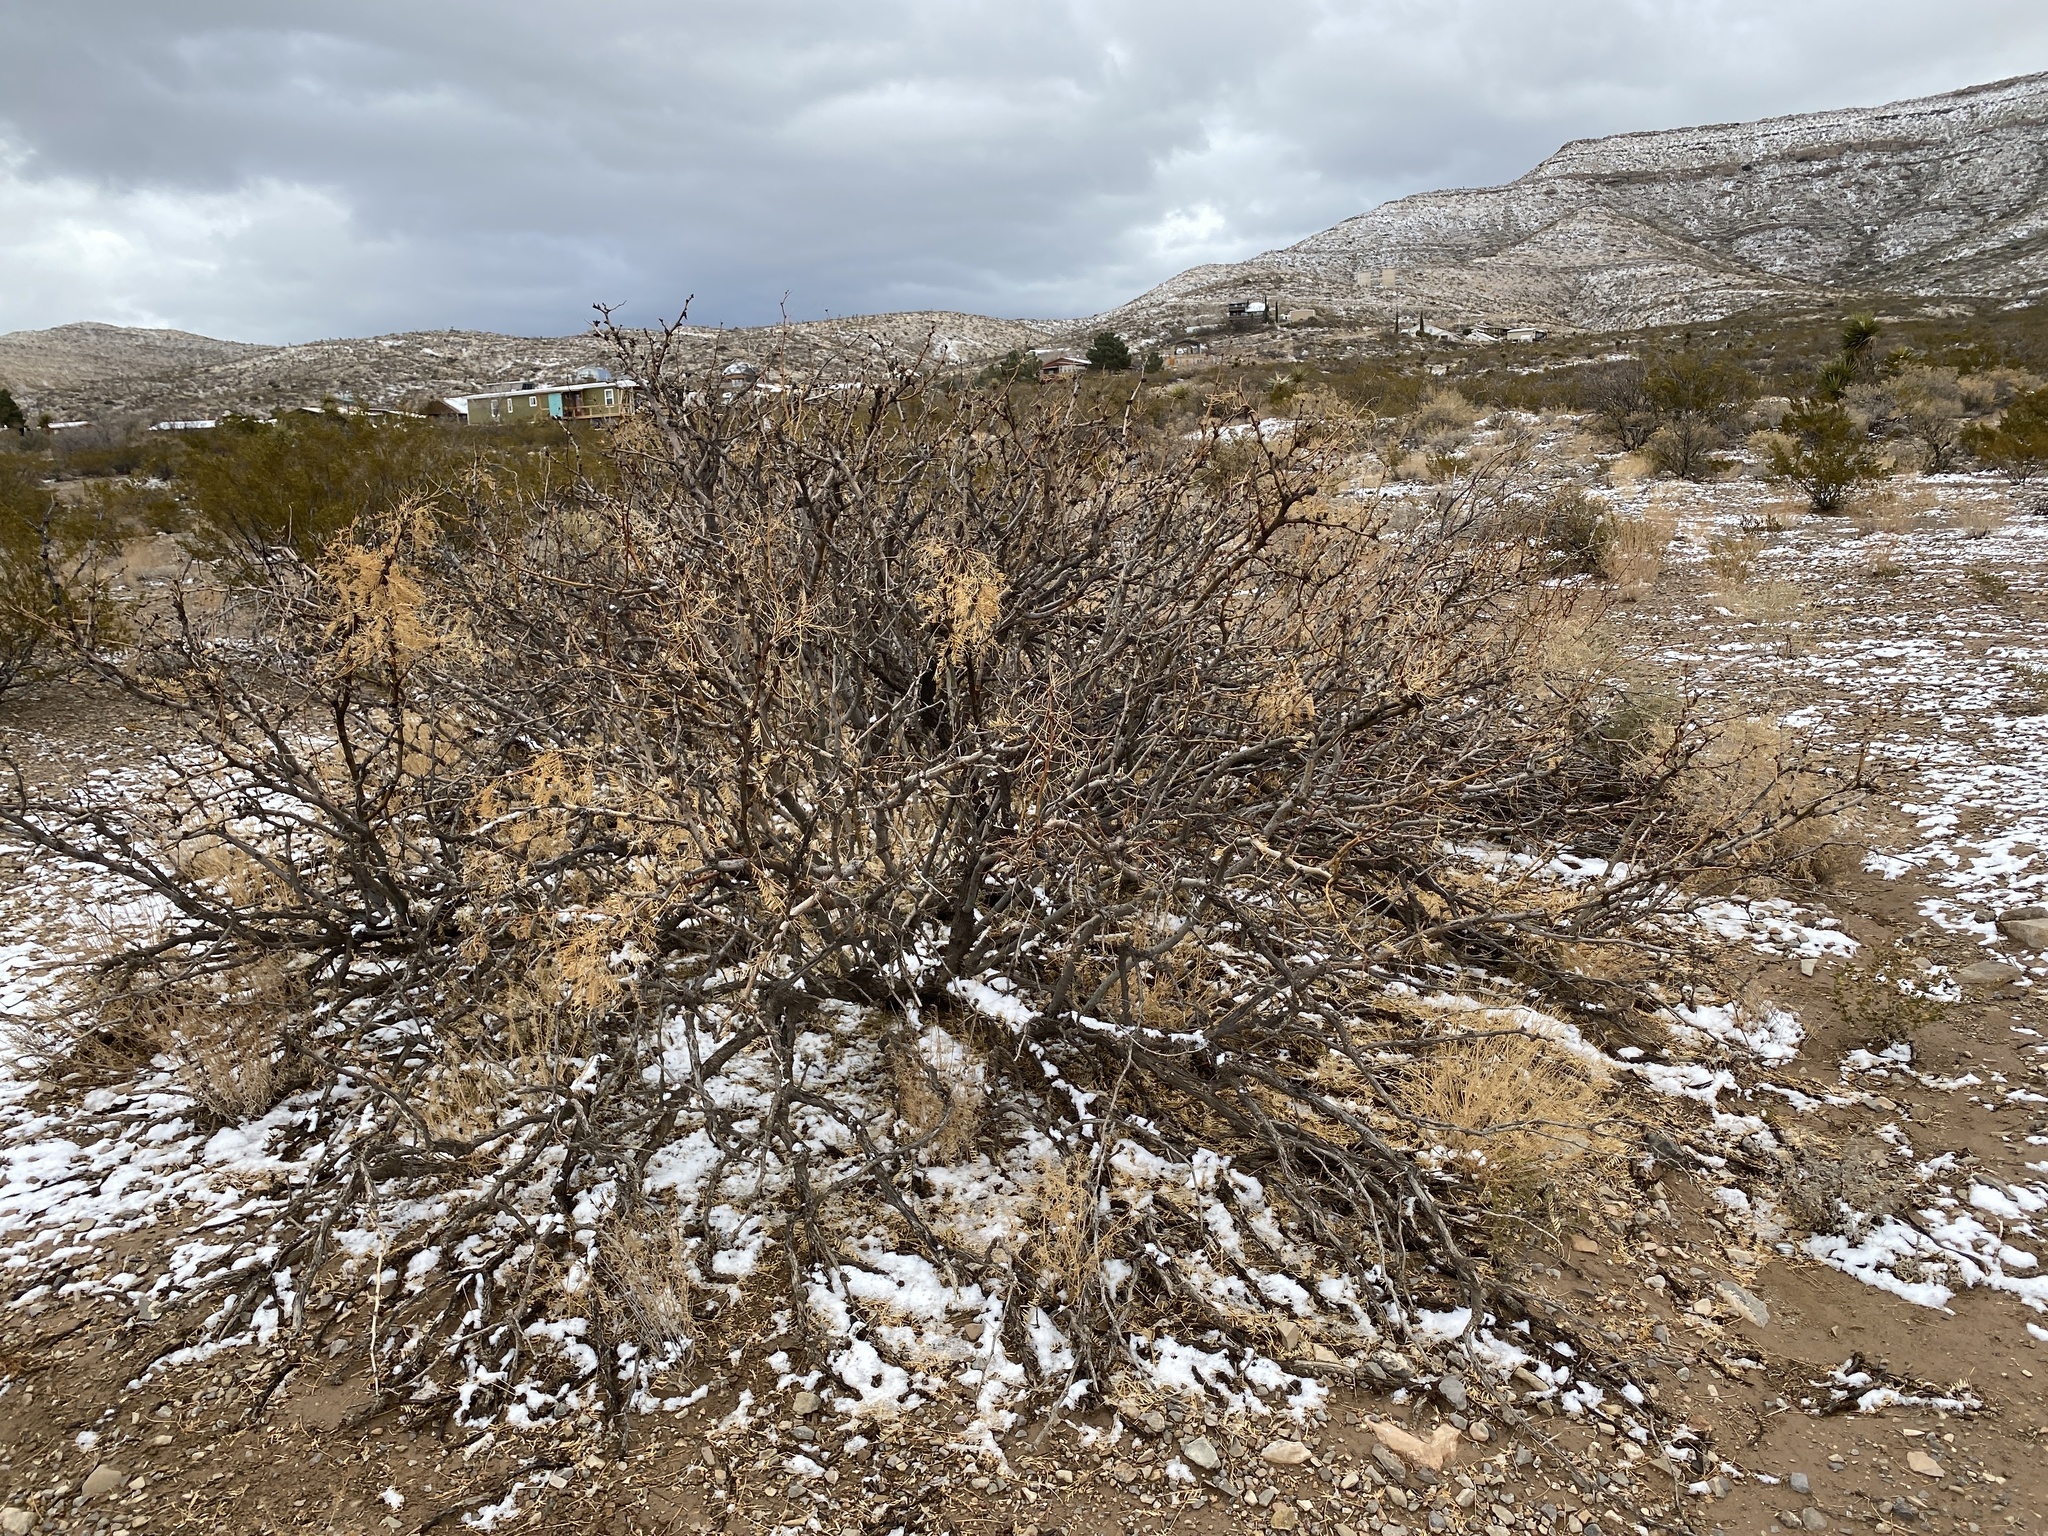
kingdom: Plantae
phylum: Tracheophyta
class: Magnoliopsida
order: Fabales
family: Fabaceae
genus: Prosopis
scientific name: Prosopis glandulosa
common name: Honey mesquite
